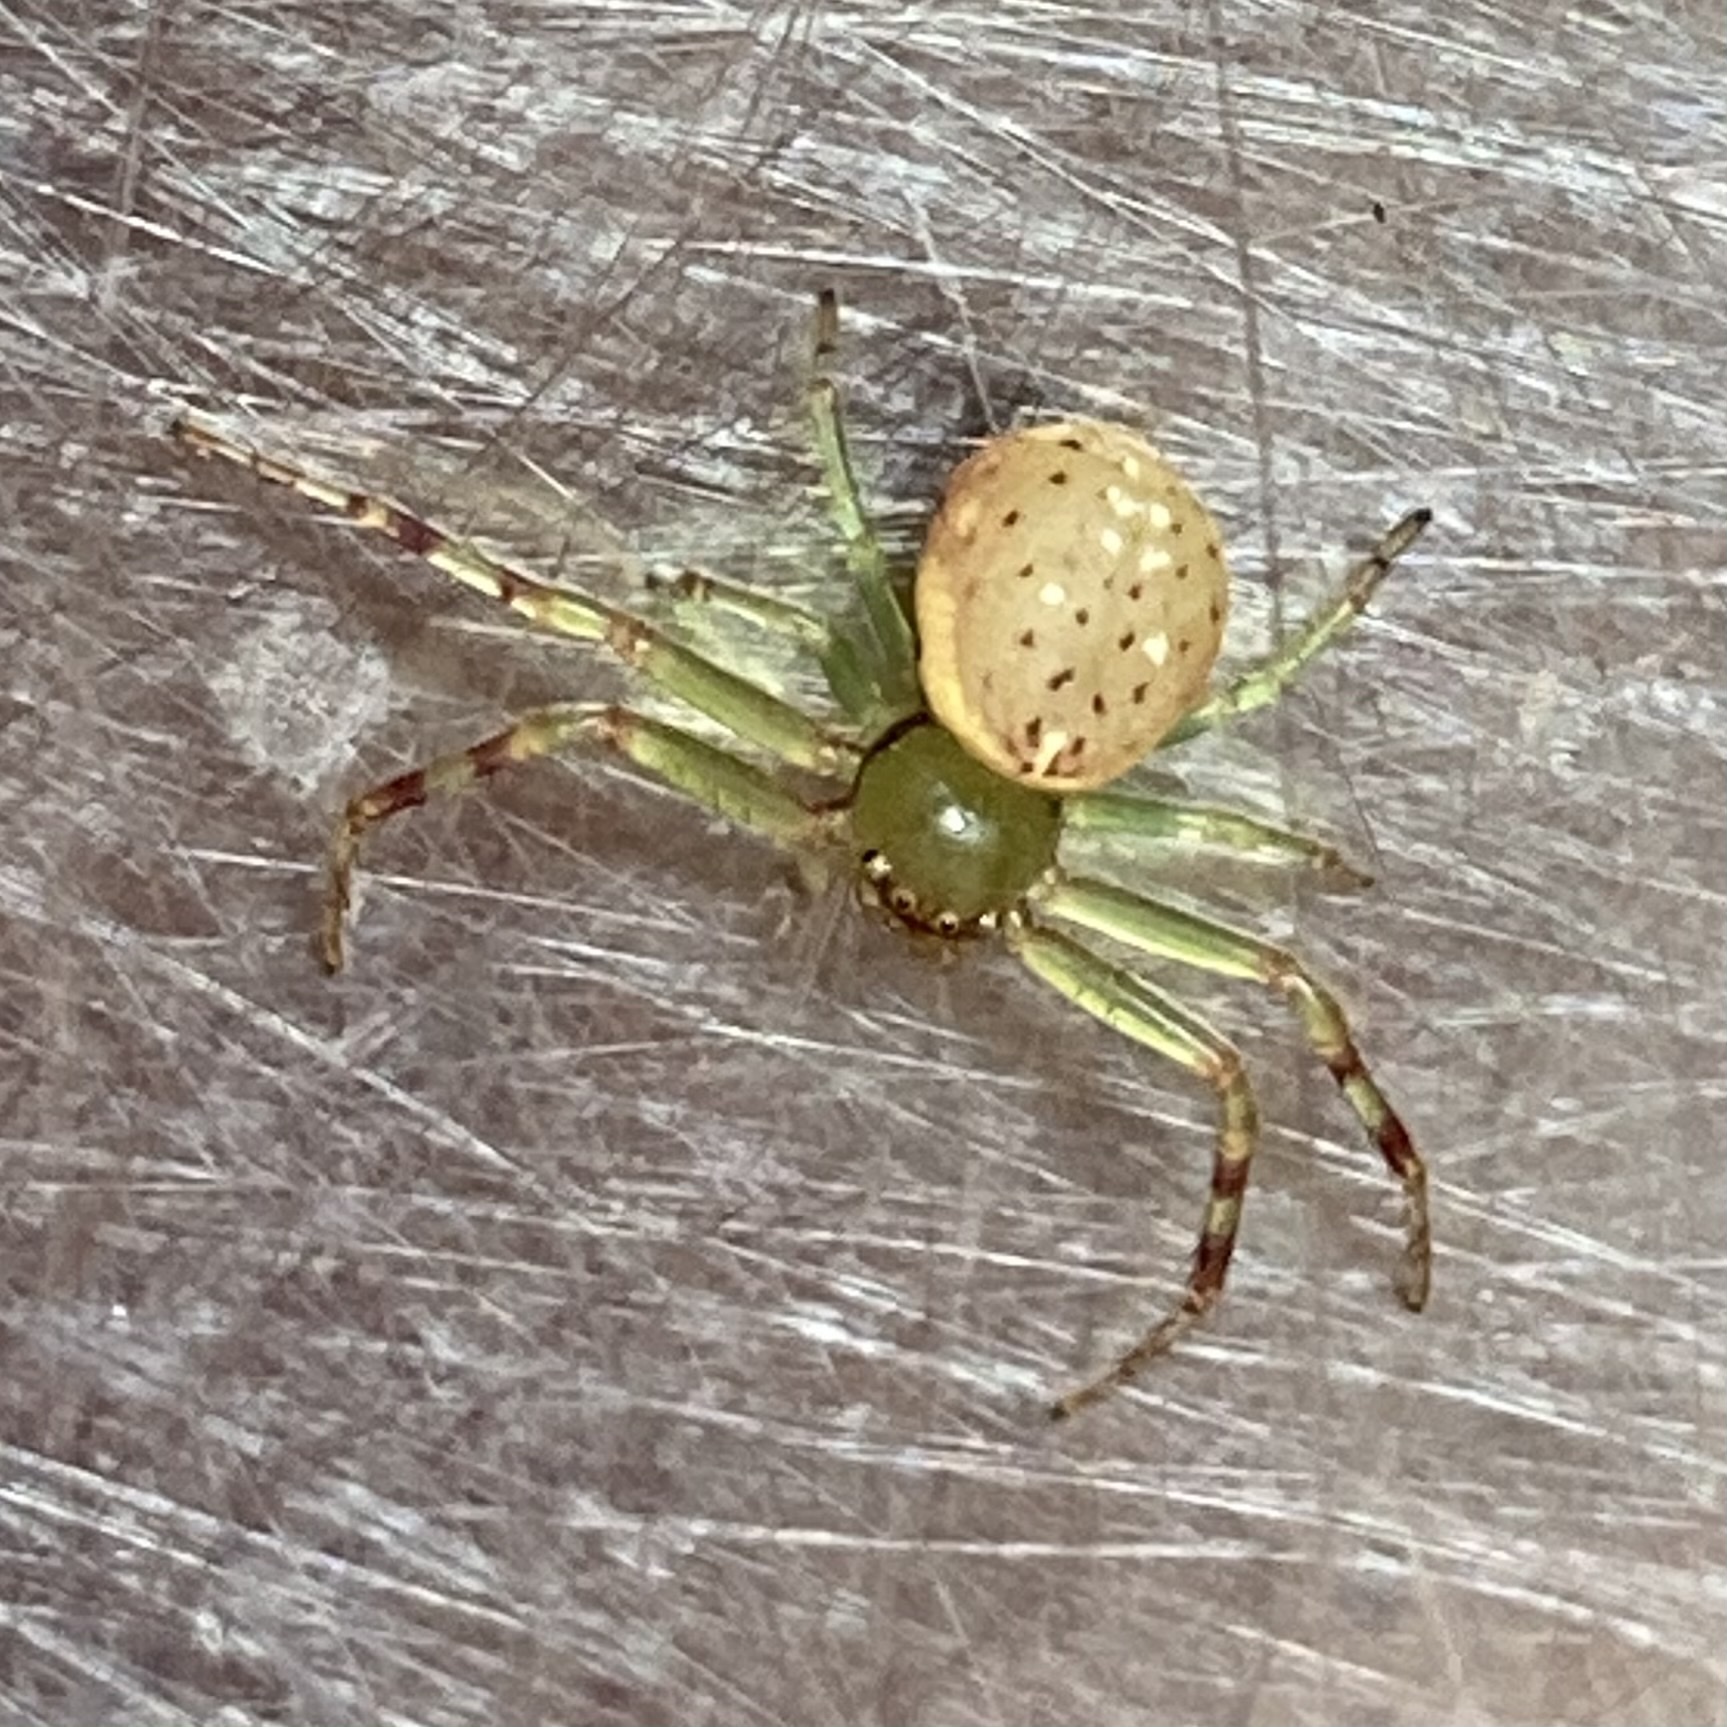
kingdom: Animalia
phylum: Arthropoda
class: Arachnida
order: Araneae
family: Thomisidae
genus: Diaea
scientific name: Diaea ambara
